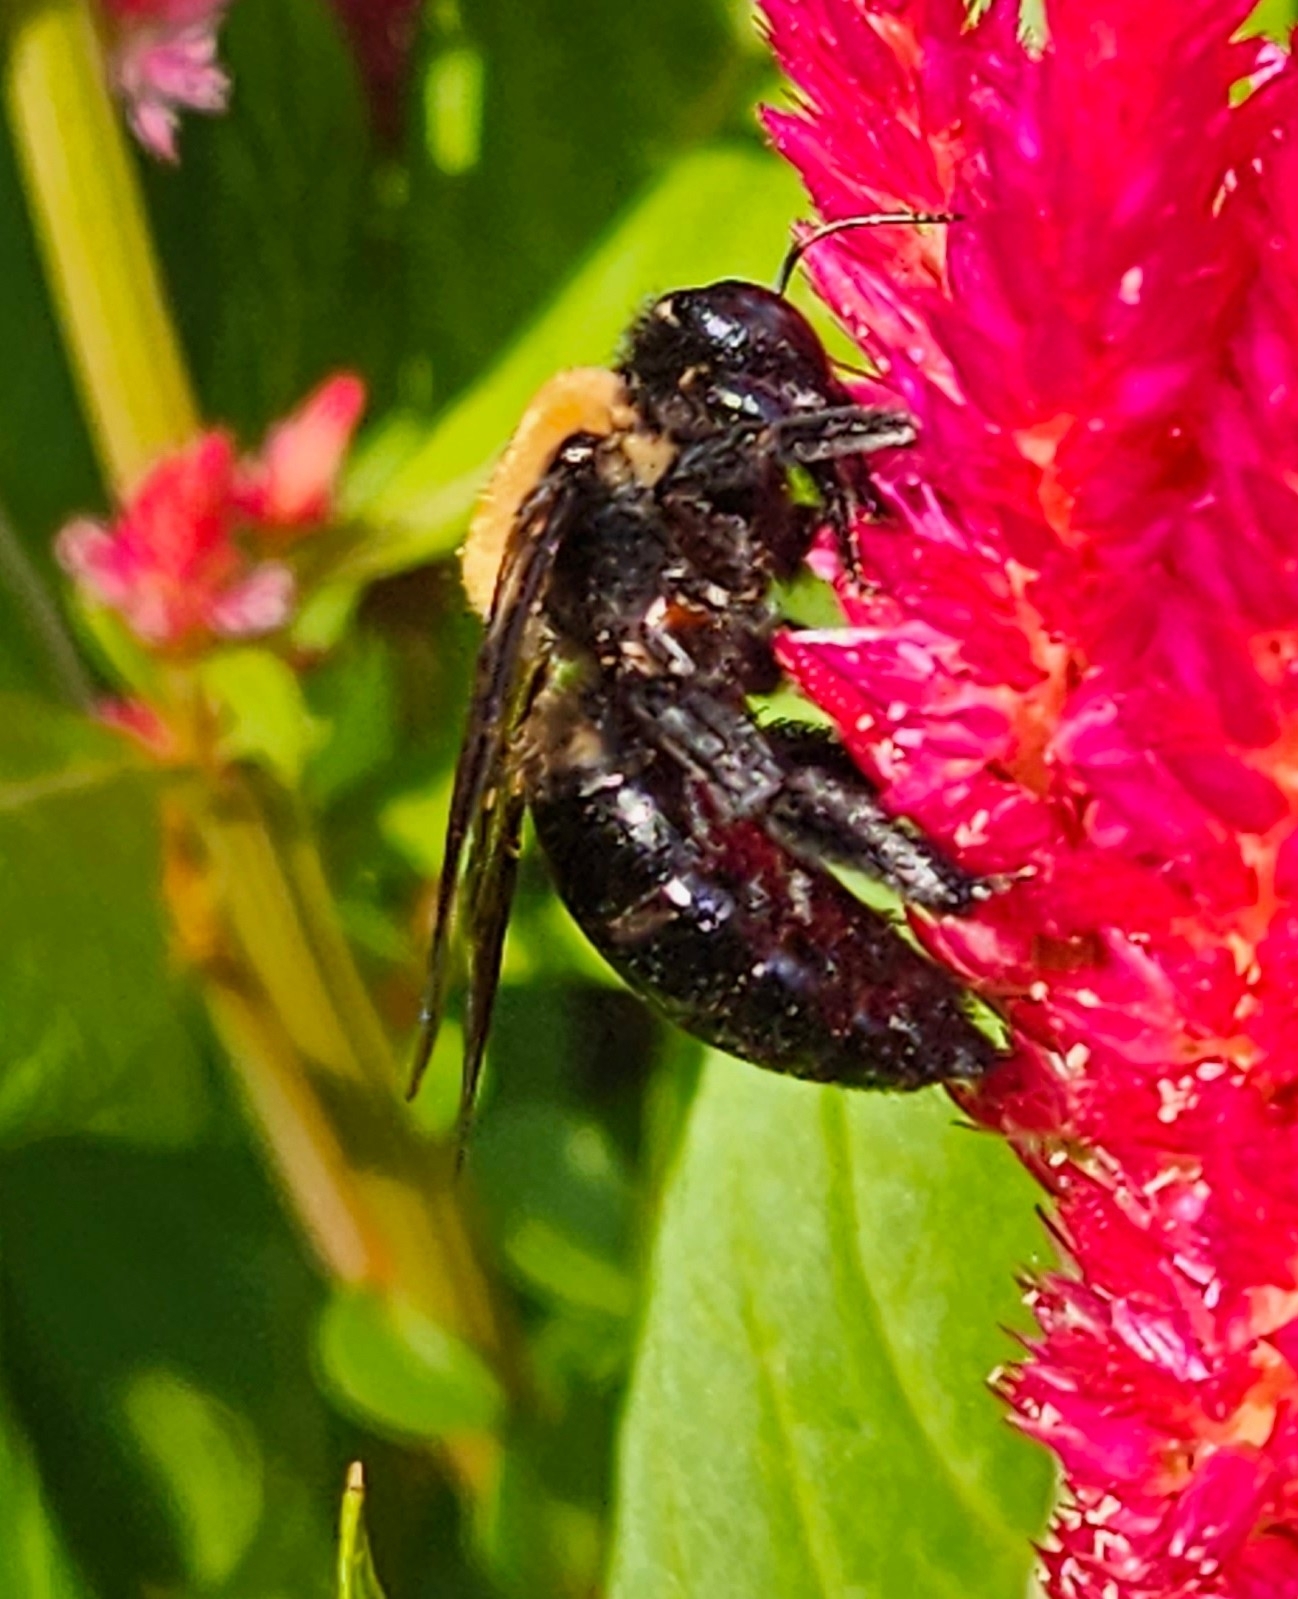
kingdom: Animalia
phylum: Arthropoda
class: Insecta
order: Hymenoptera
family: Apidae
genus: Xylocopa
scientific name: Xylocopa virginica
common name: Carpenter bee
